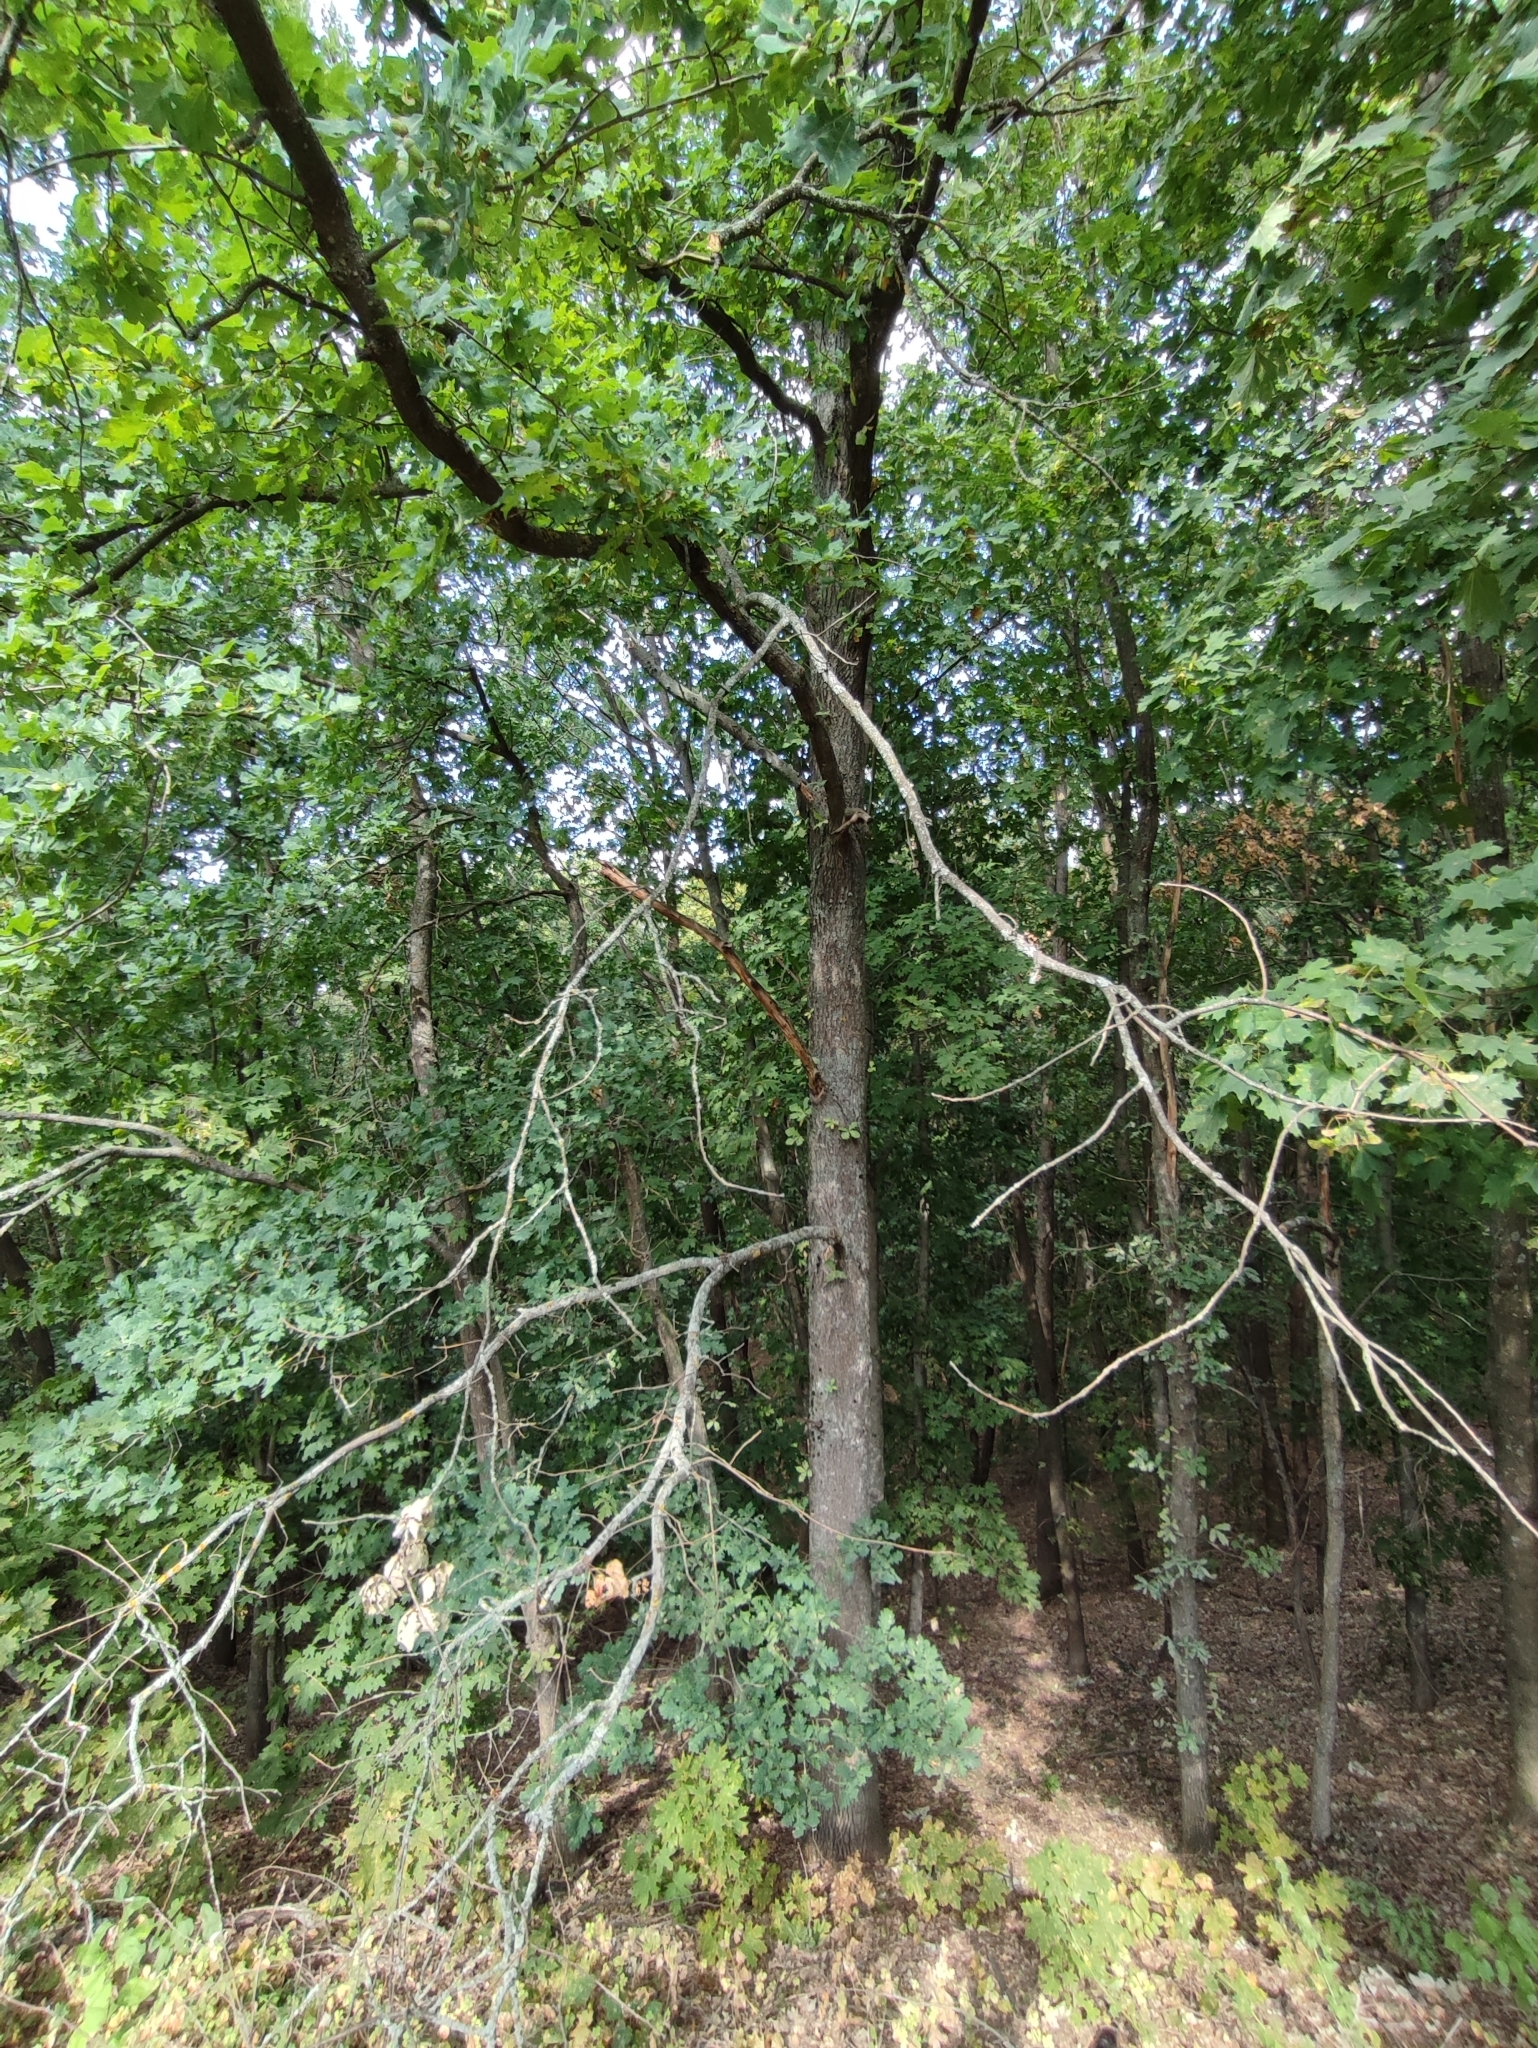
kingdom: Plantae
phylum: Tracheophyta
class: Magnoliopsida
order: Fagales
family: Fagaceae
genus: Quercus
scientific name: Quercus robur
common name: Pedunculate oak
